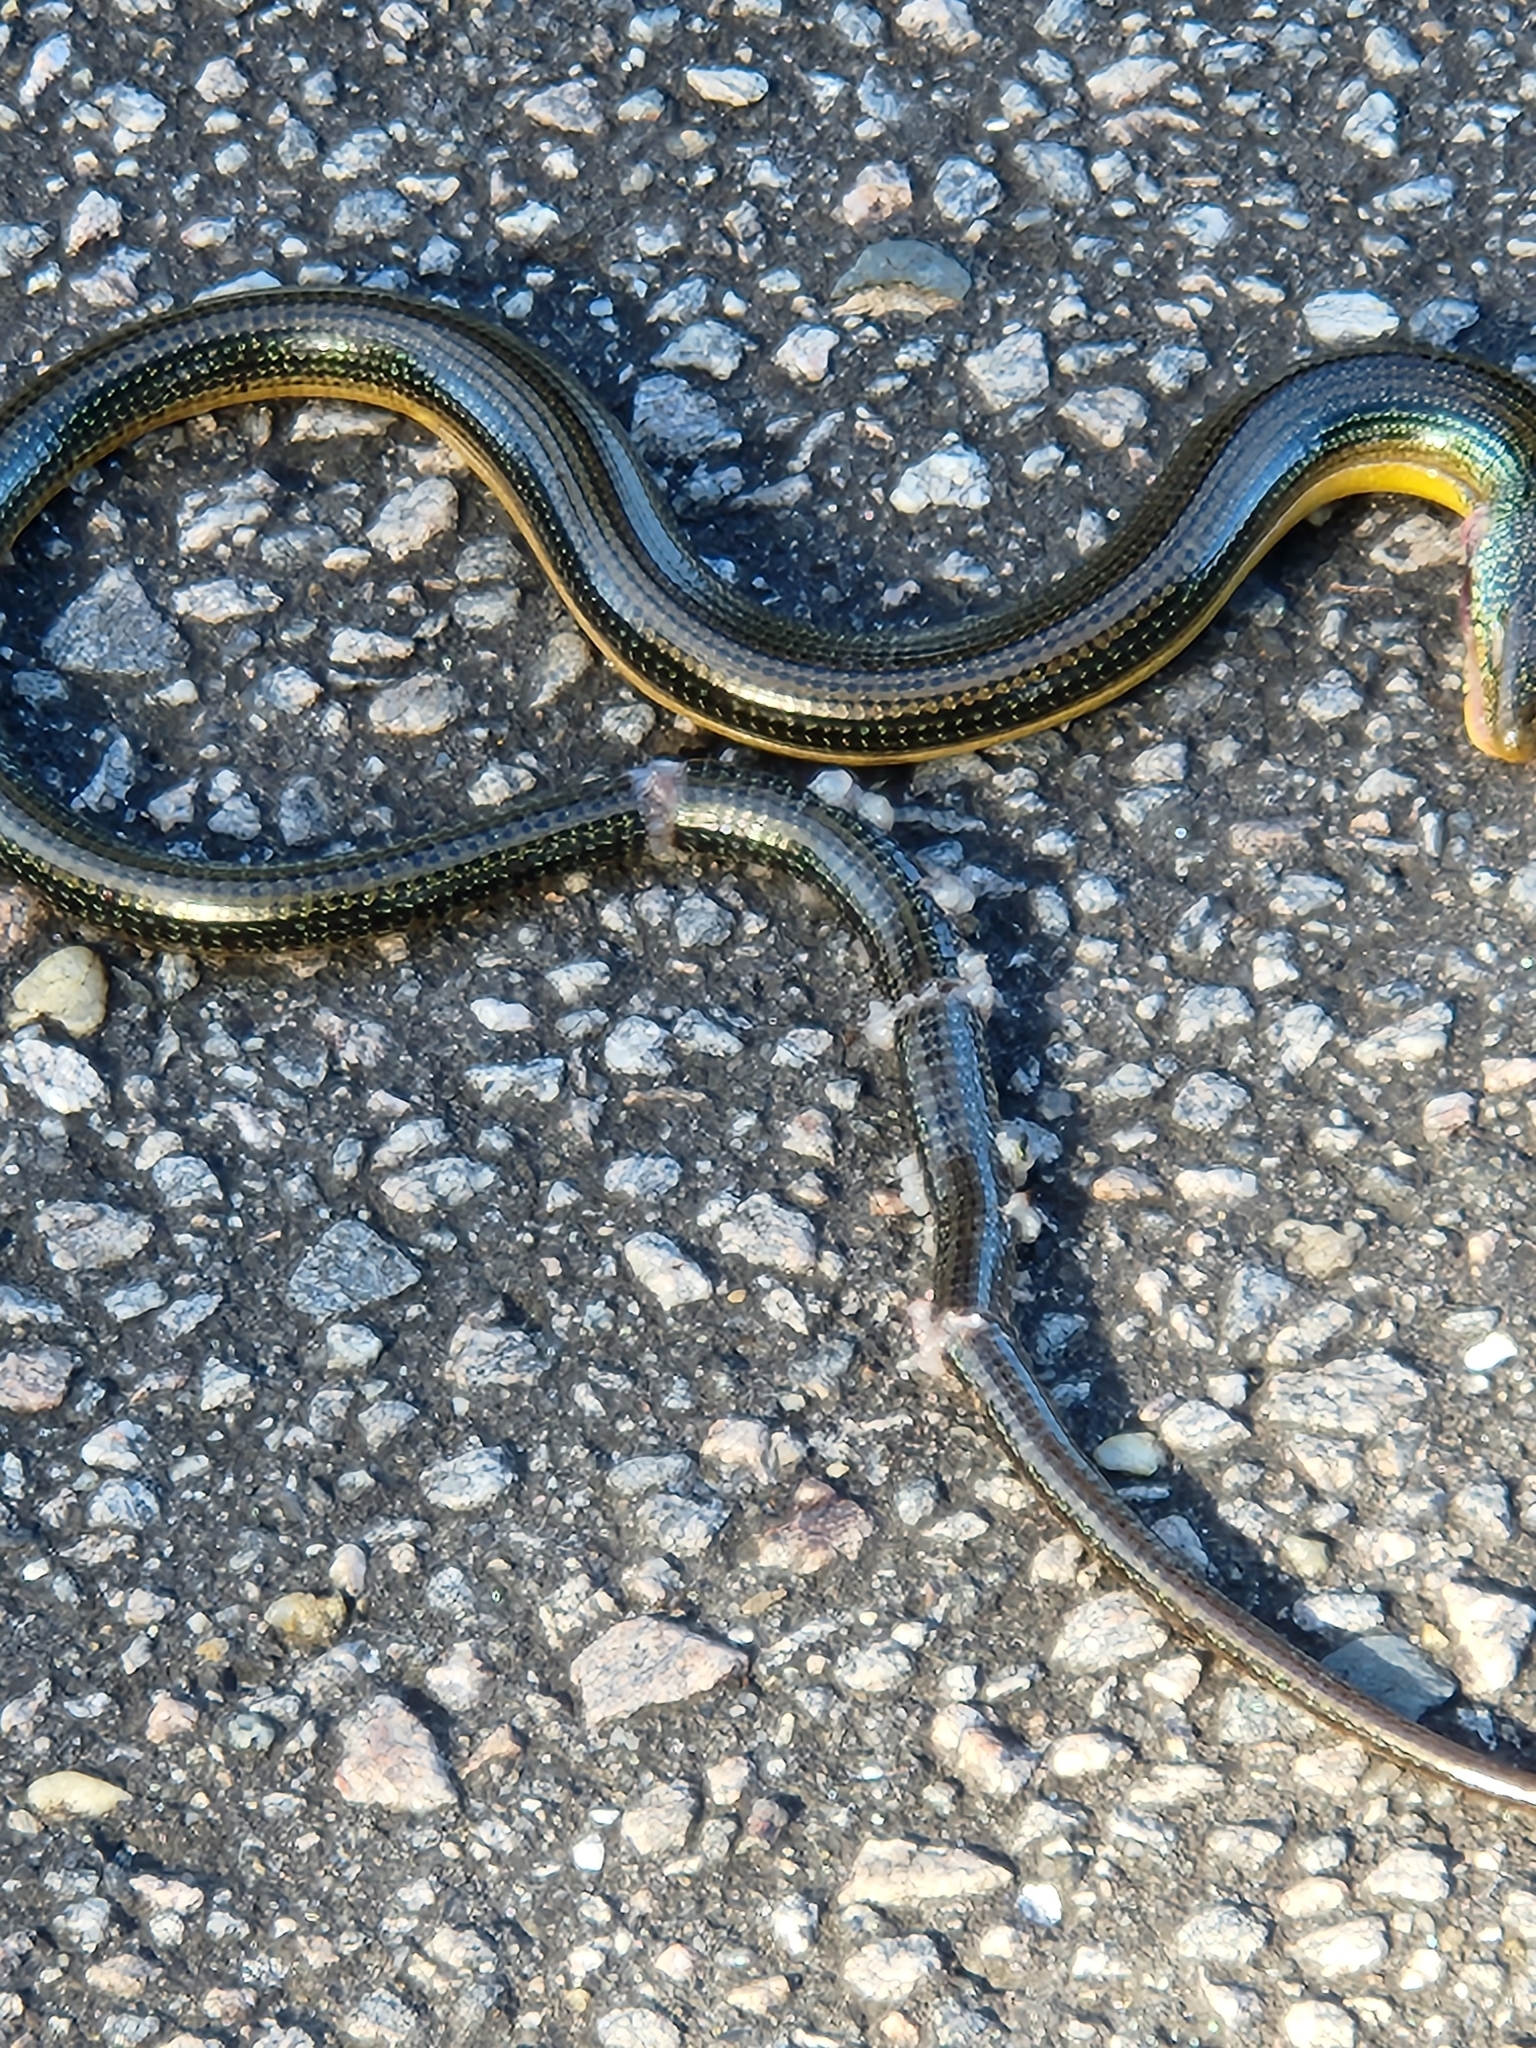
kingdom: Animalia
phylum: Chordata
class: Squamata
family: Anguidae
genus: Ophisaurus
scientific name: Ophisaurus ventralis
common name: Eastern glass lizard
